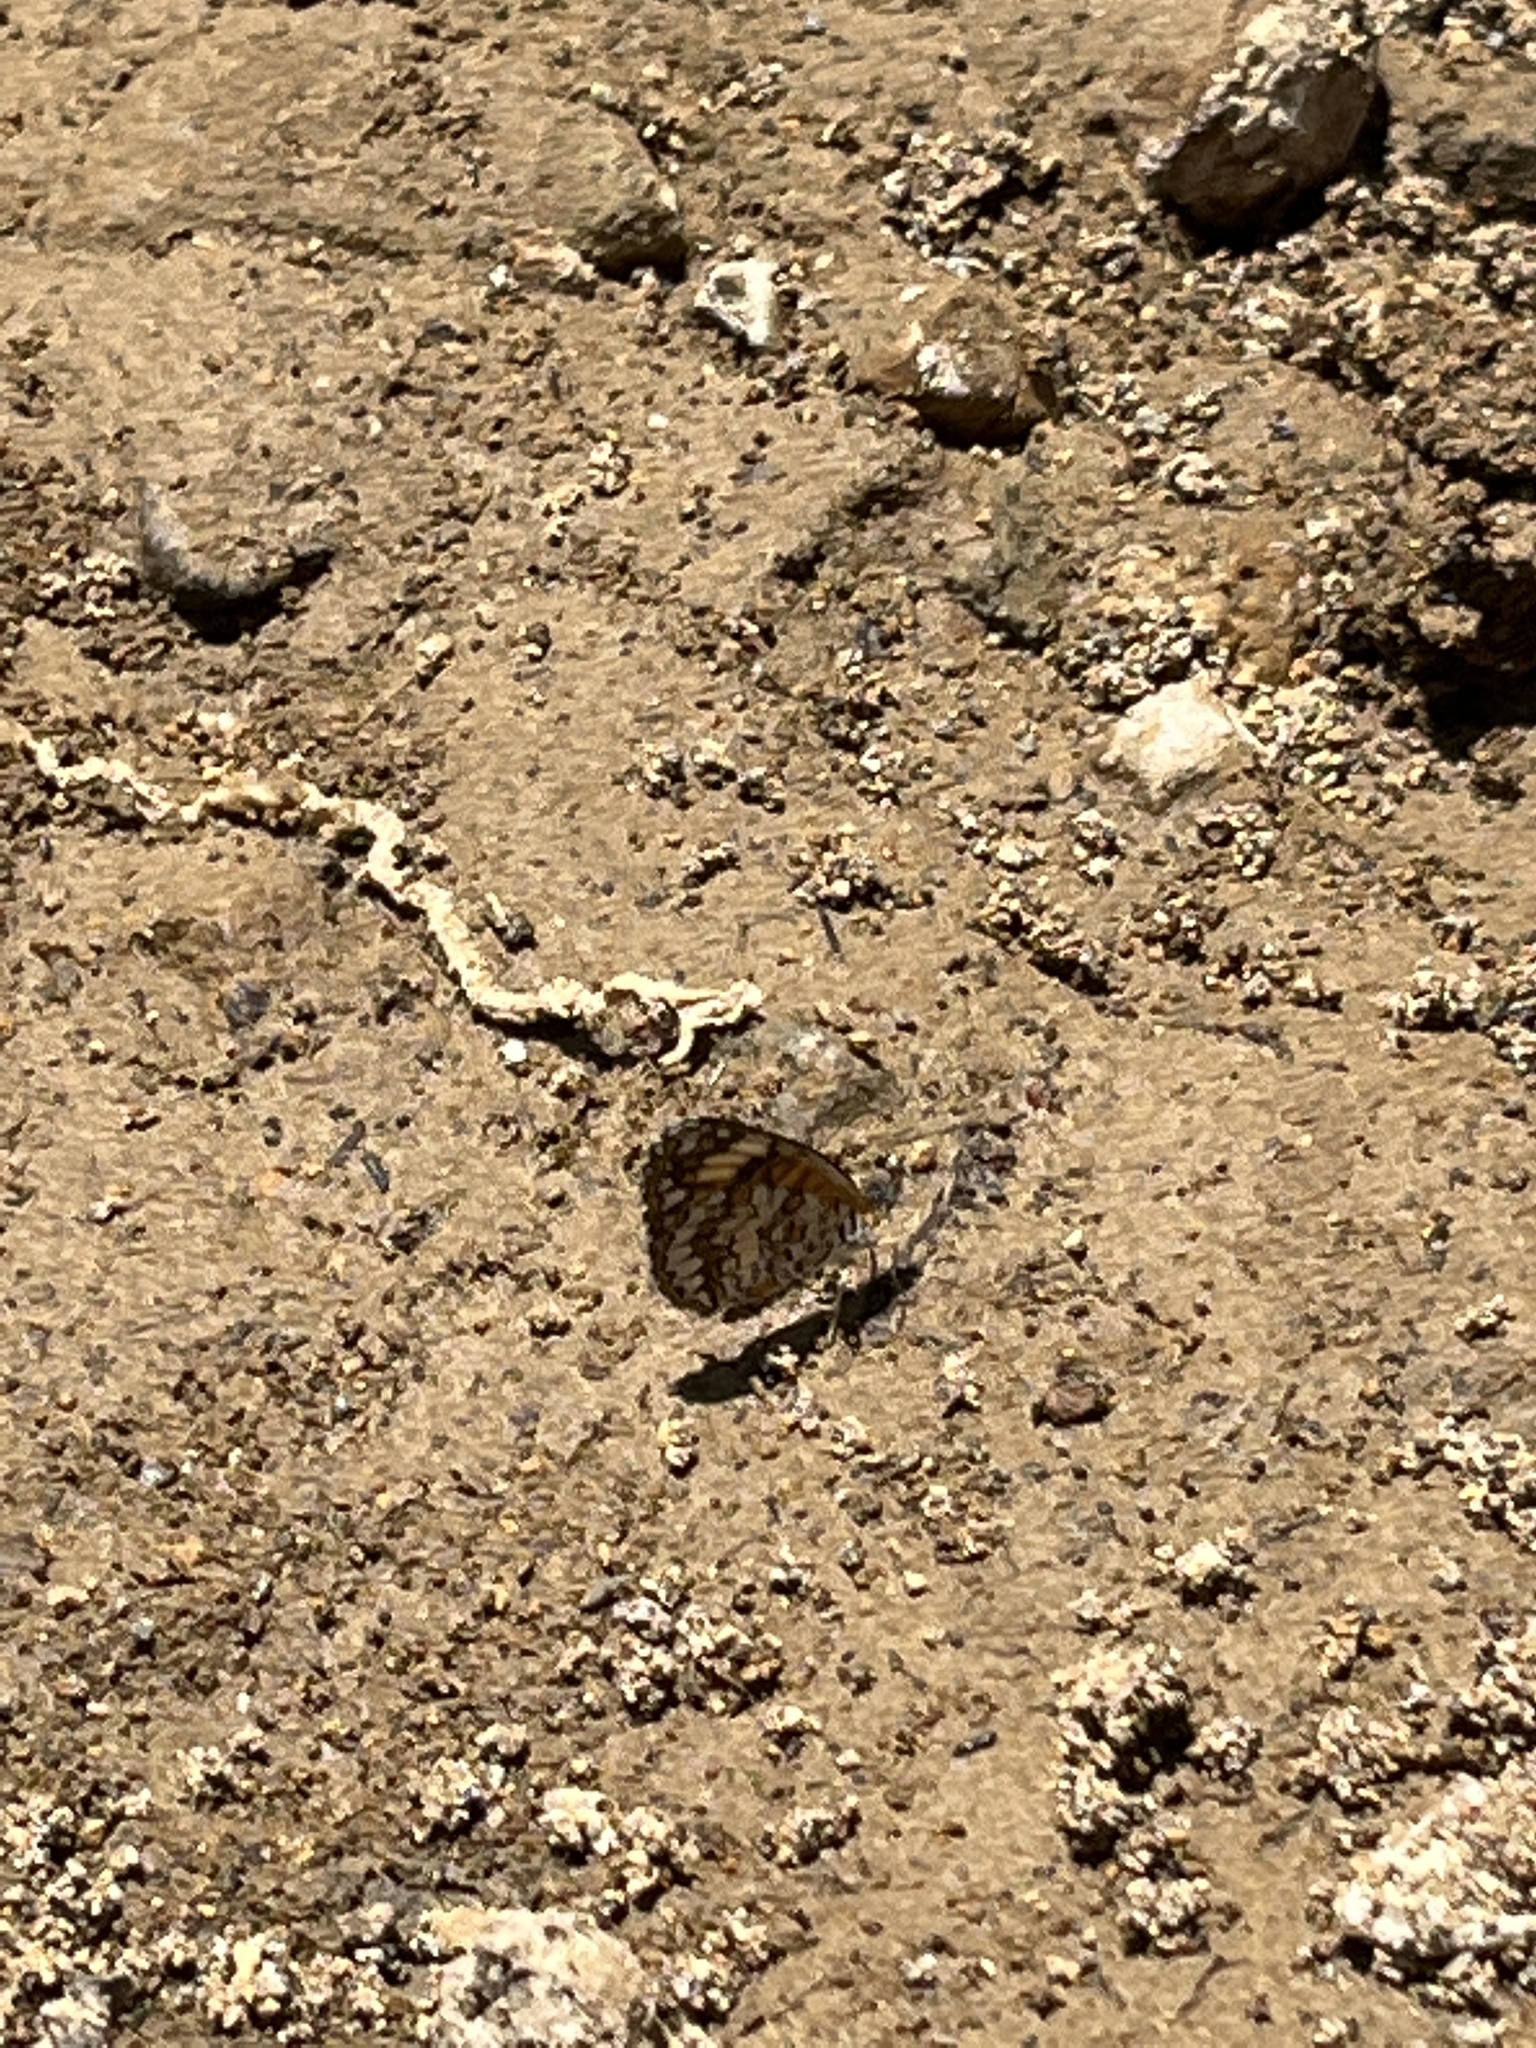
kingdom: Animalia
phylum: Arthropoda
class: Insecta
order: Lepidoptera
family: Nymphalidae
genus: Texola
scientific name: Texola elada
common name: Elada checkerspot
